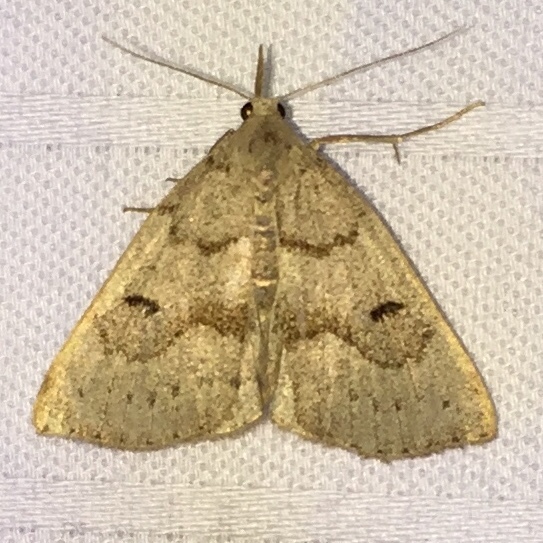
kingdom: Animalia
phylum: Arthropoda
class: Insecta
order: Lepidoptera
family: Erebidae
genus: Macrochilo
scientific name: Macrochilo morbidalis
